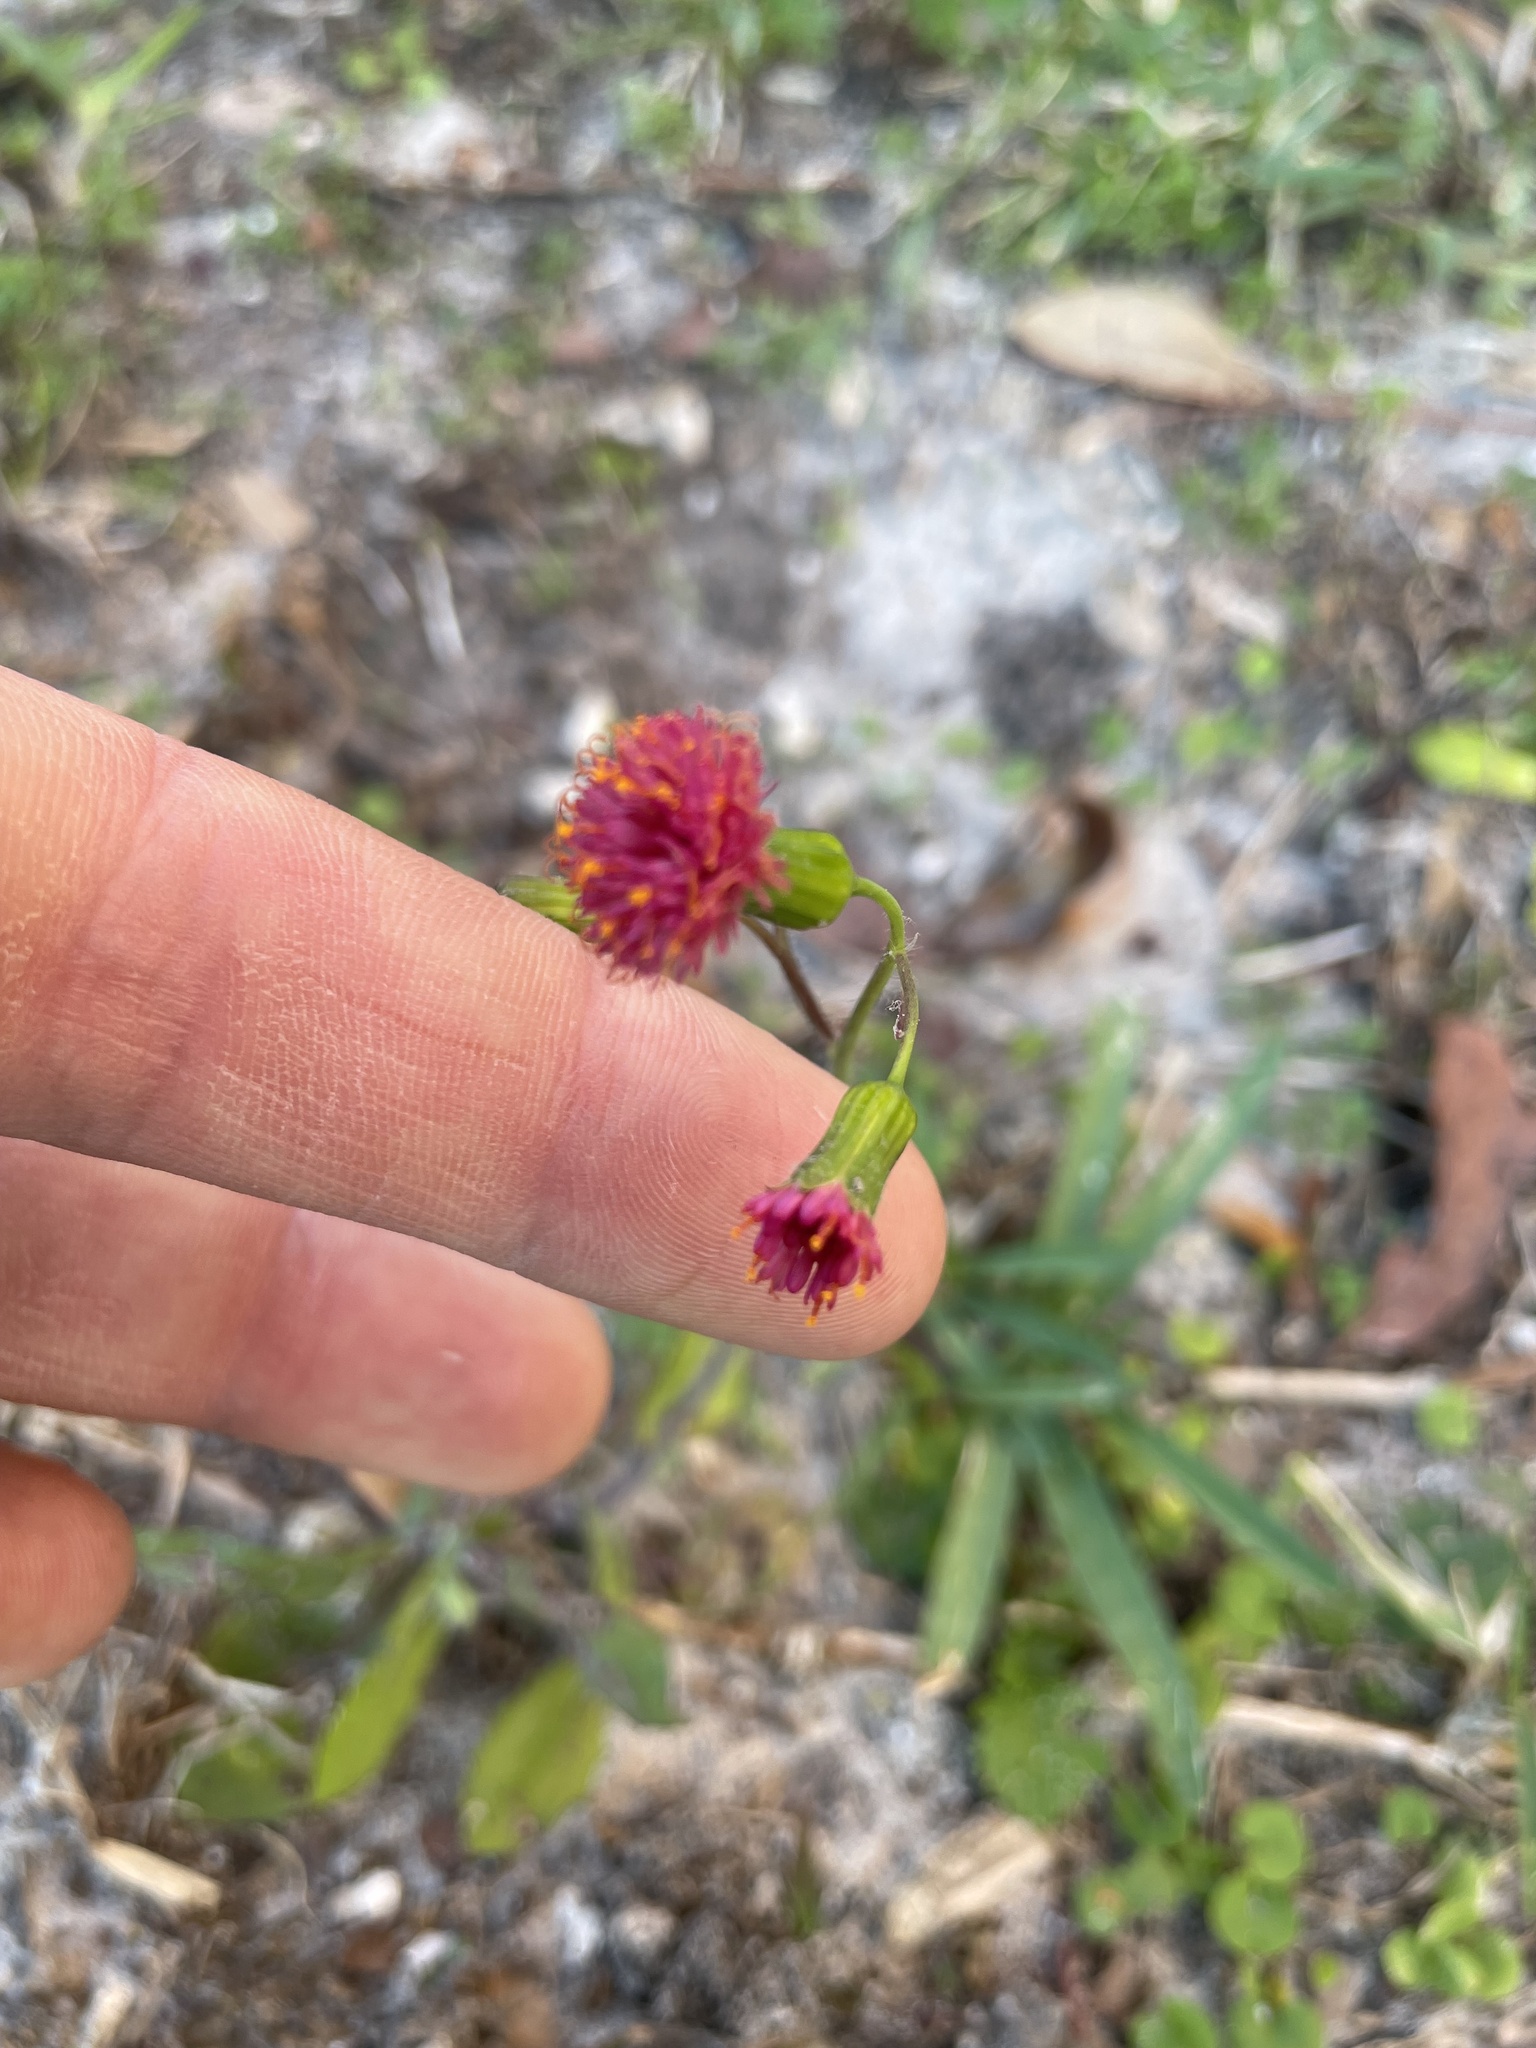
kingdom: Plantae
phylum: Tracheophyta
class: Magnoliopsida
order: Asterales
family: Asteraceae
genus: Emilia
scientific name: Emilia fosbergii
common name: Florida tasselflower
